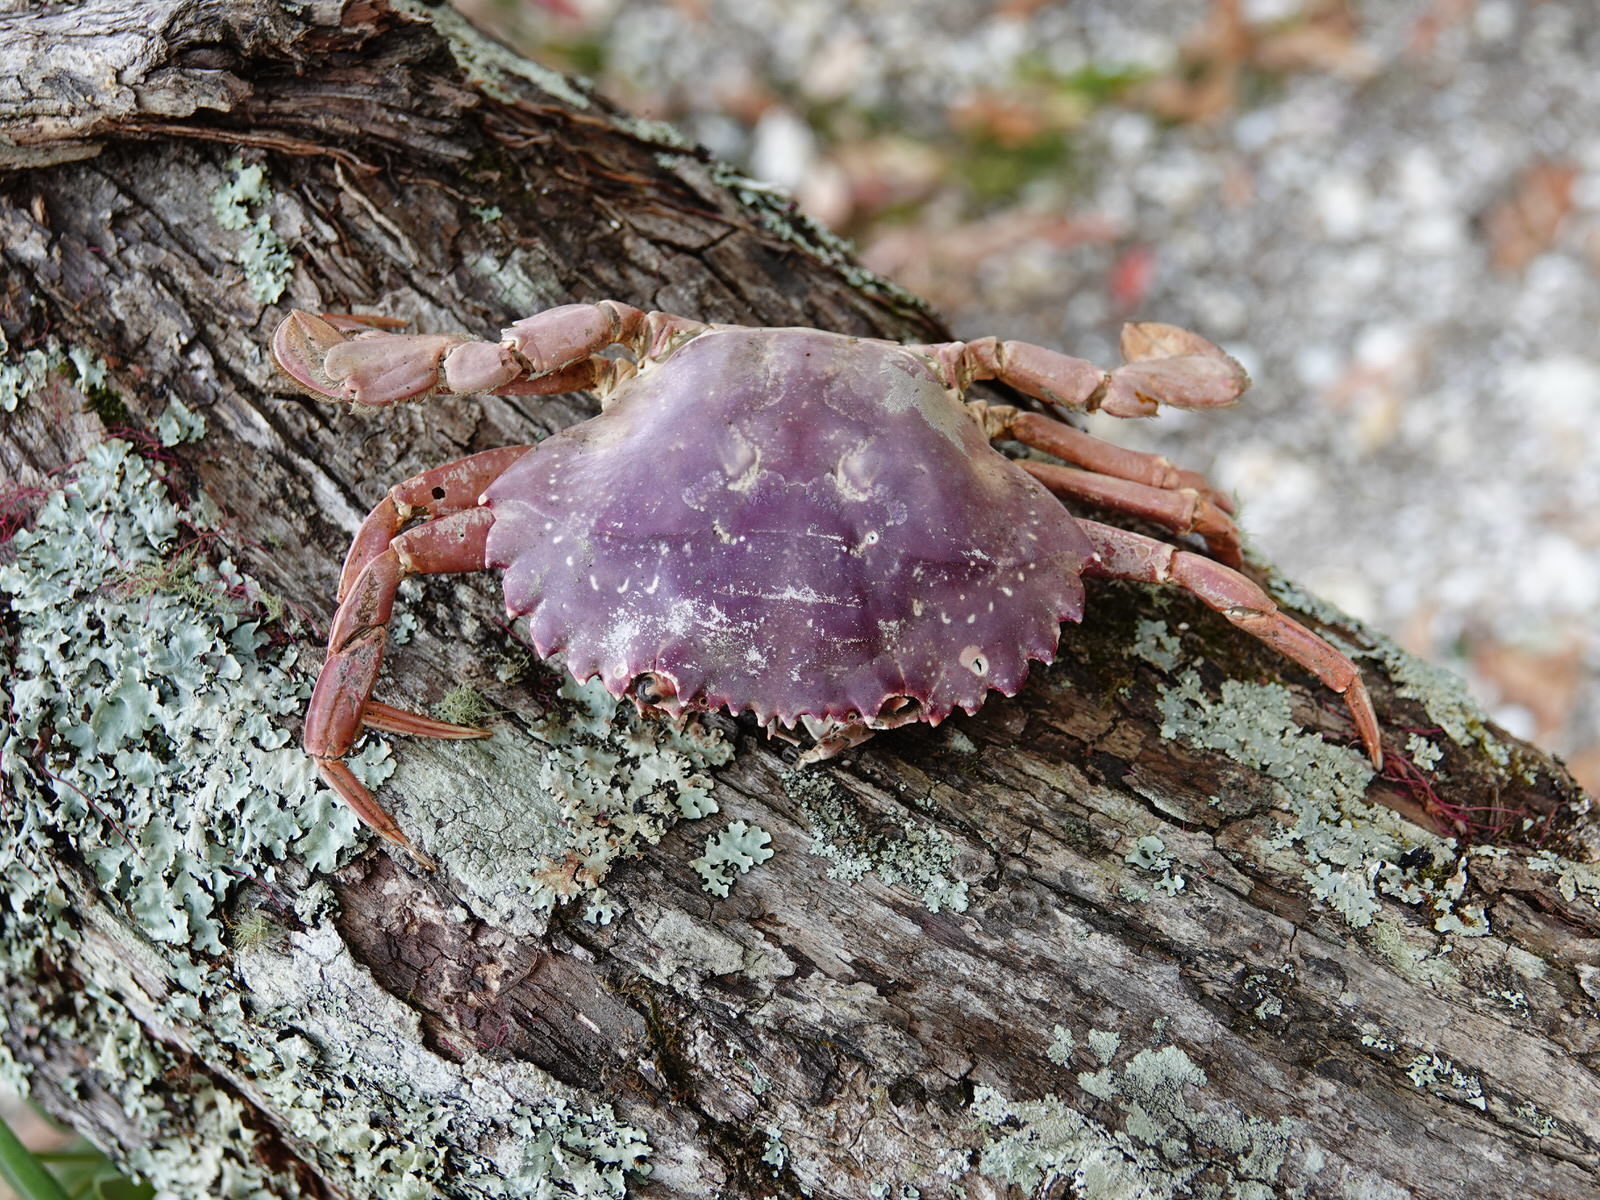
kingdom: Animalia
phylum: Arthropoda
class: Malacostraca
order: Decapoda
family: Portunidae
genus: Charybdis
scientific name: Charybdis japonica
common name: Asian paddle crab
